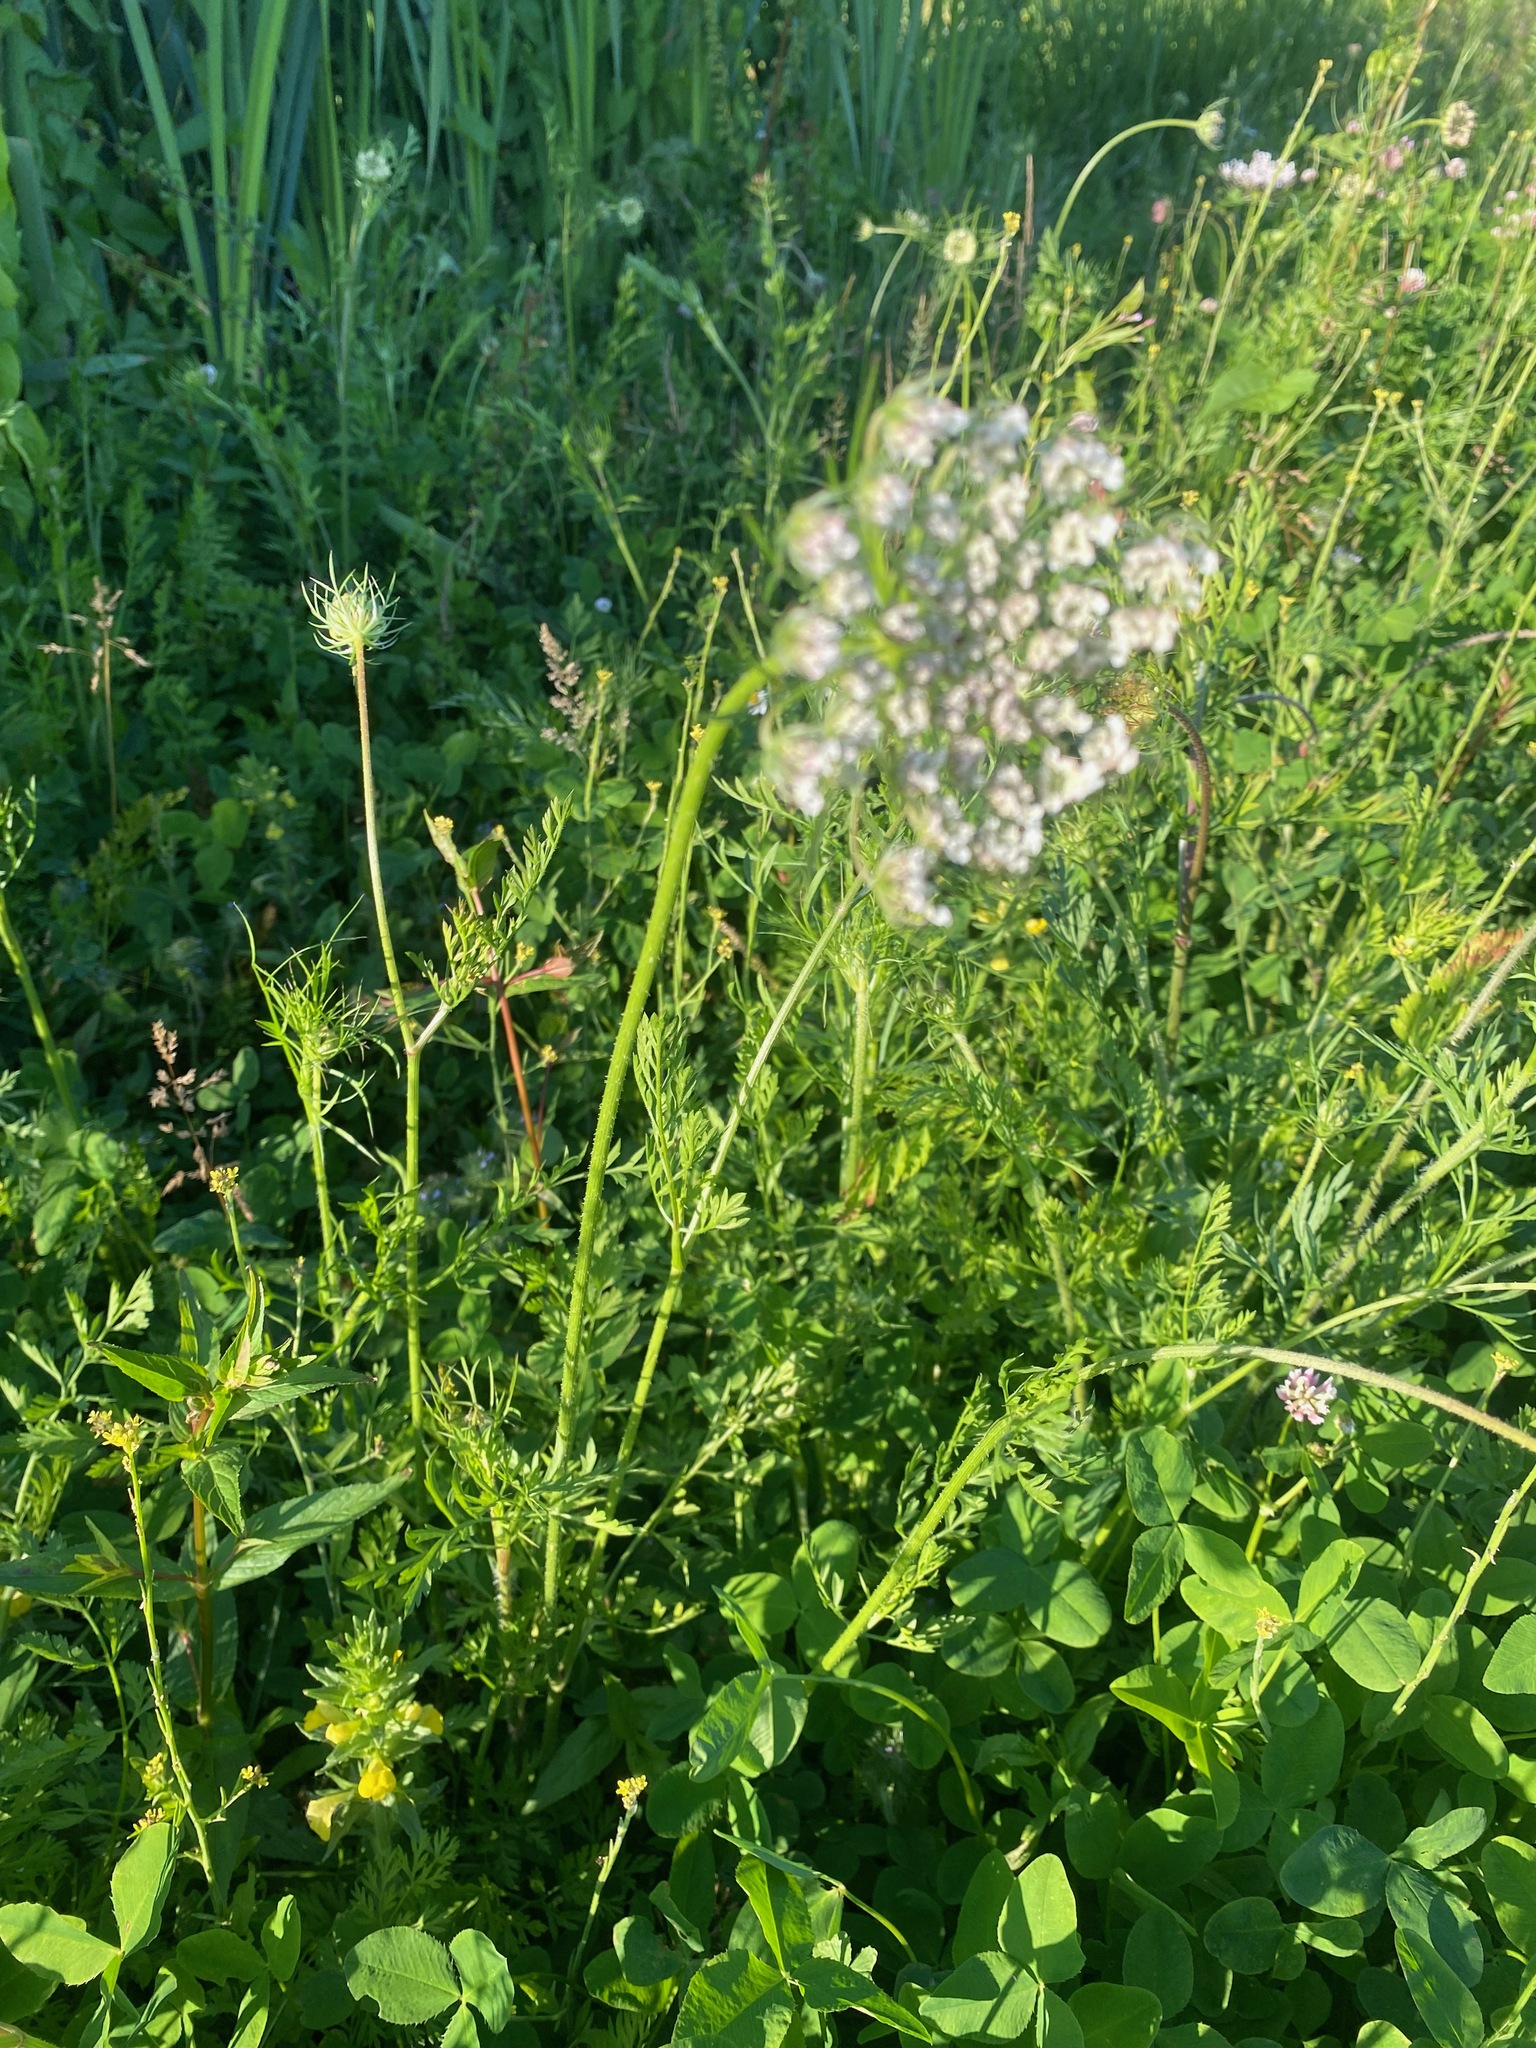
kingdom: Plantae
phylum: Tracheophyta
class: Magnoliopsida
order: Apiales
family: Apiaceae
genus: Daucus
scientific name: Daucus carota
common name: Wild carrot
